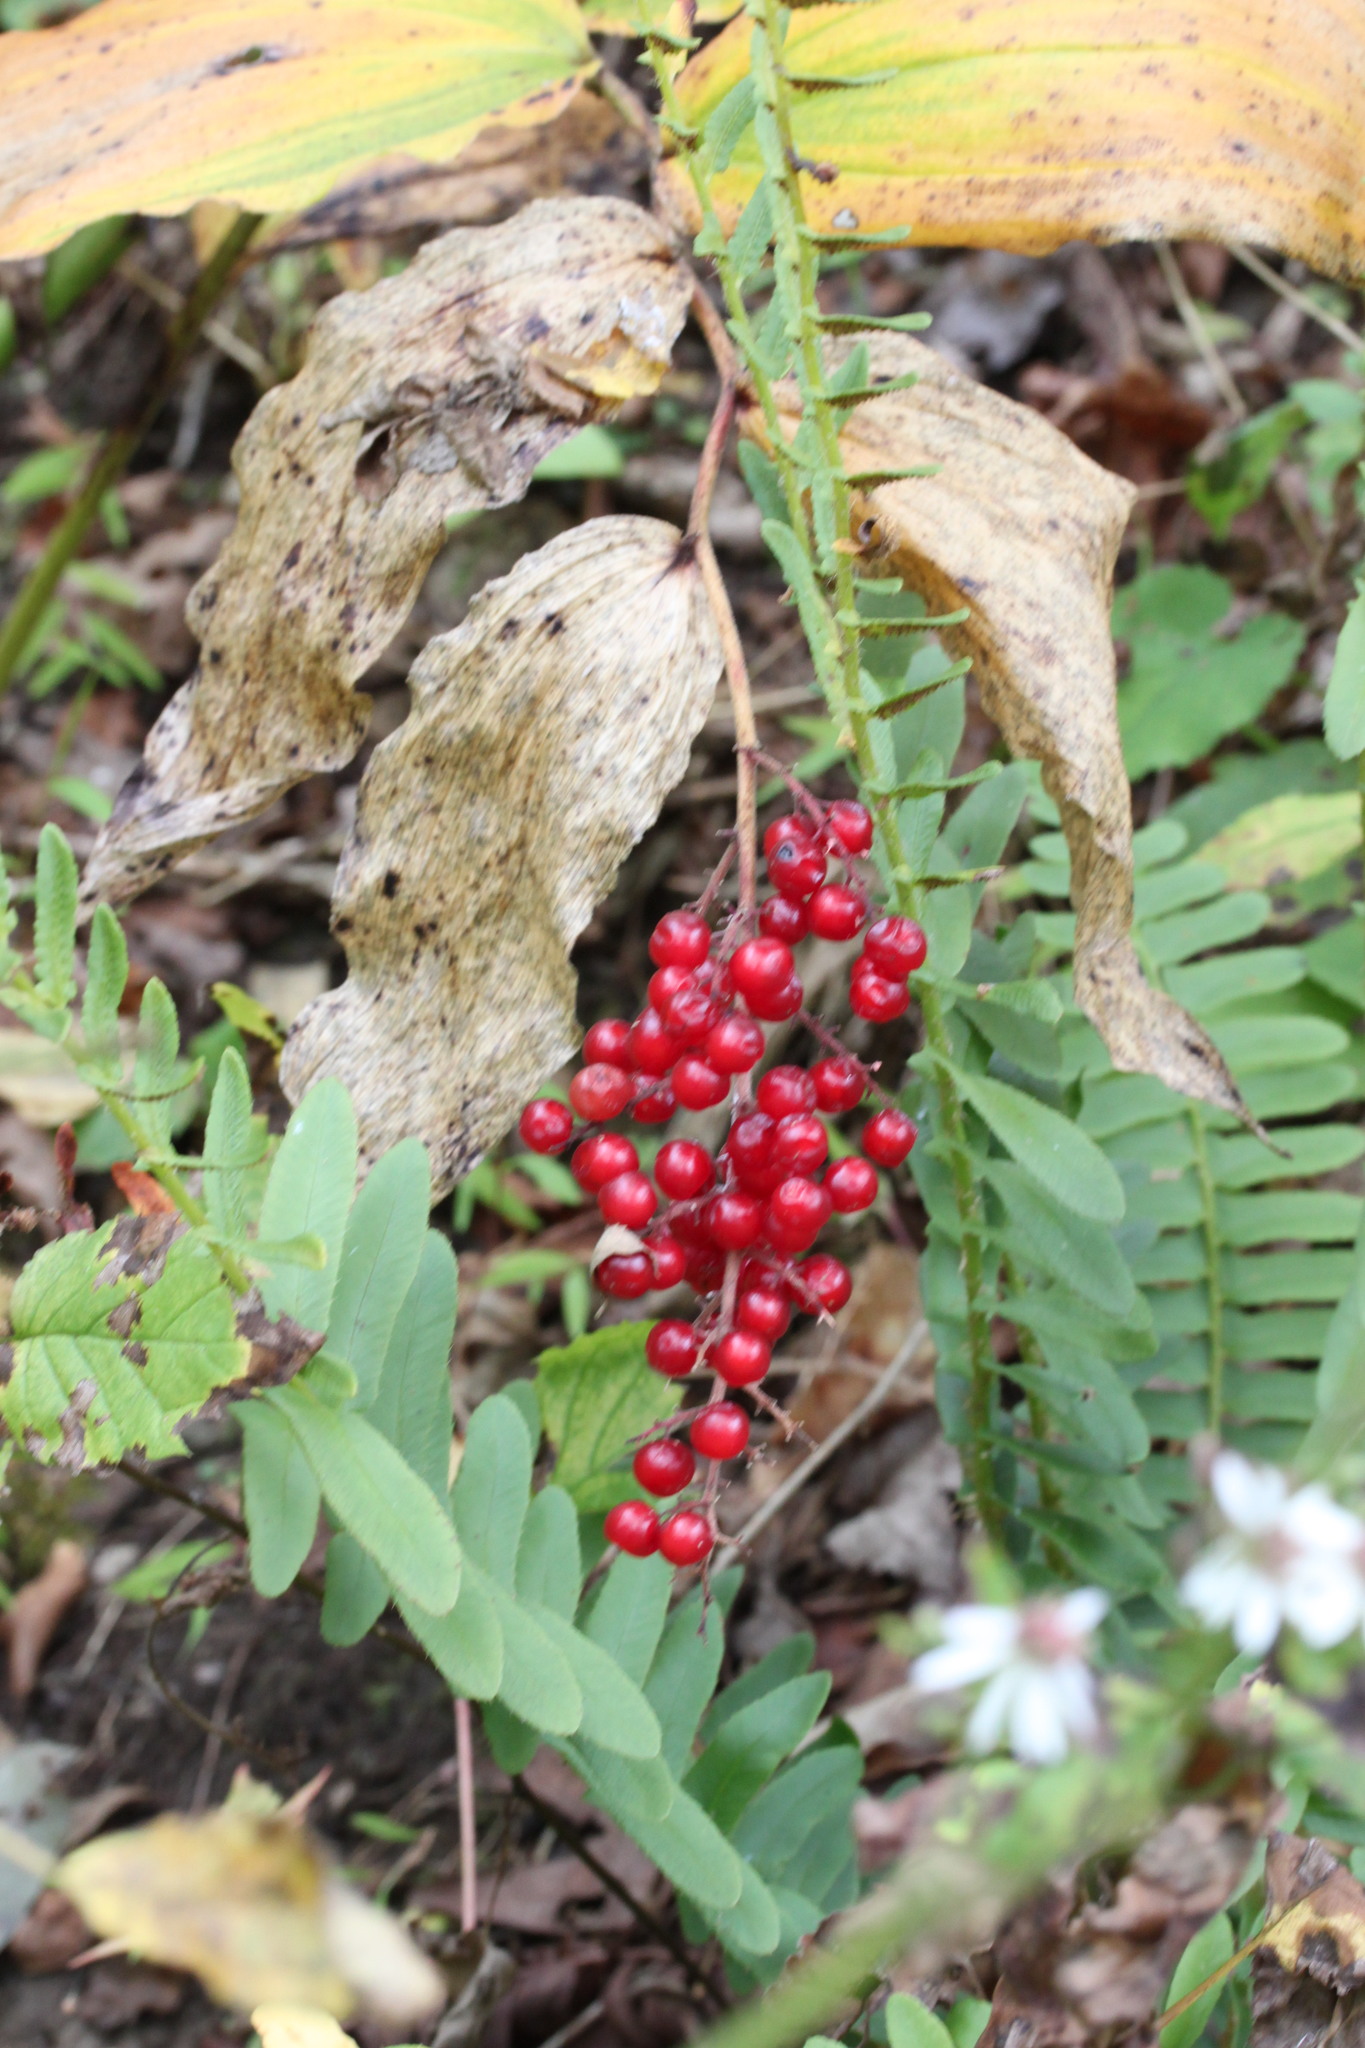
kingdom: Plantae
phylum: Tracheophyta
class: Liliopsida
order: Asparagales
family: Asparagaceae
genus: Maianthemum
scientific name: Maianthemum racemosum
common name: False spikenard
